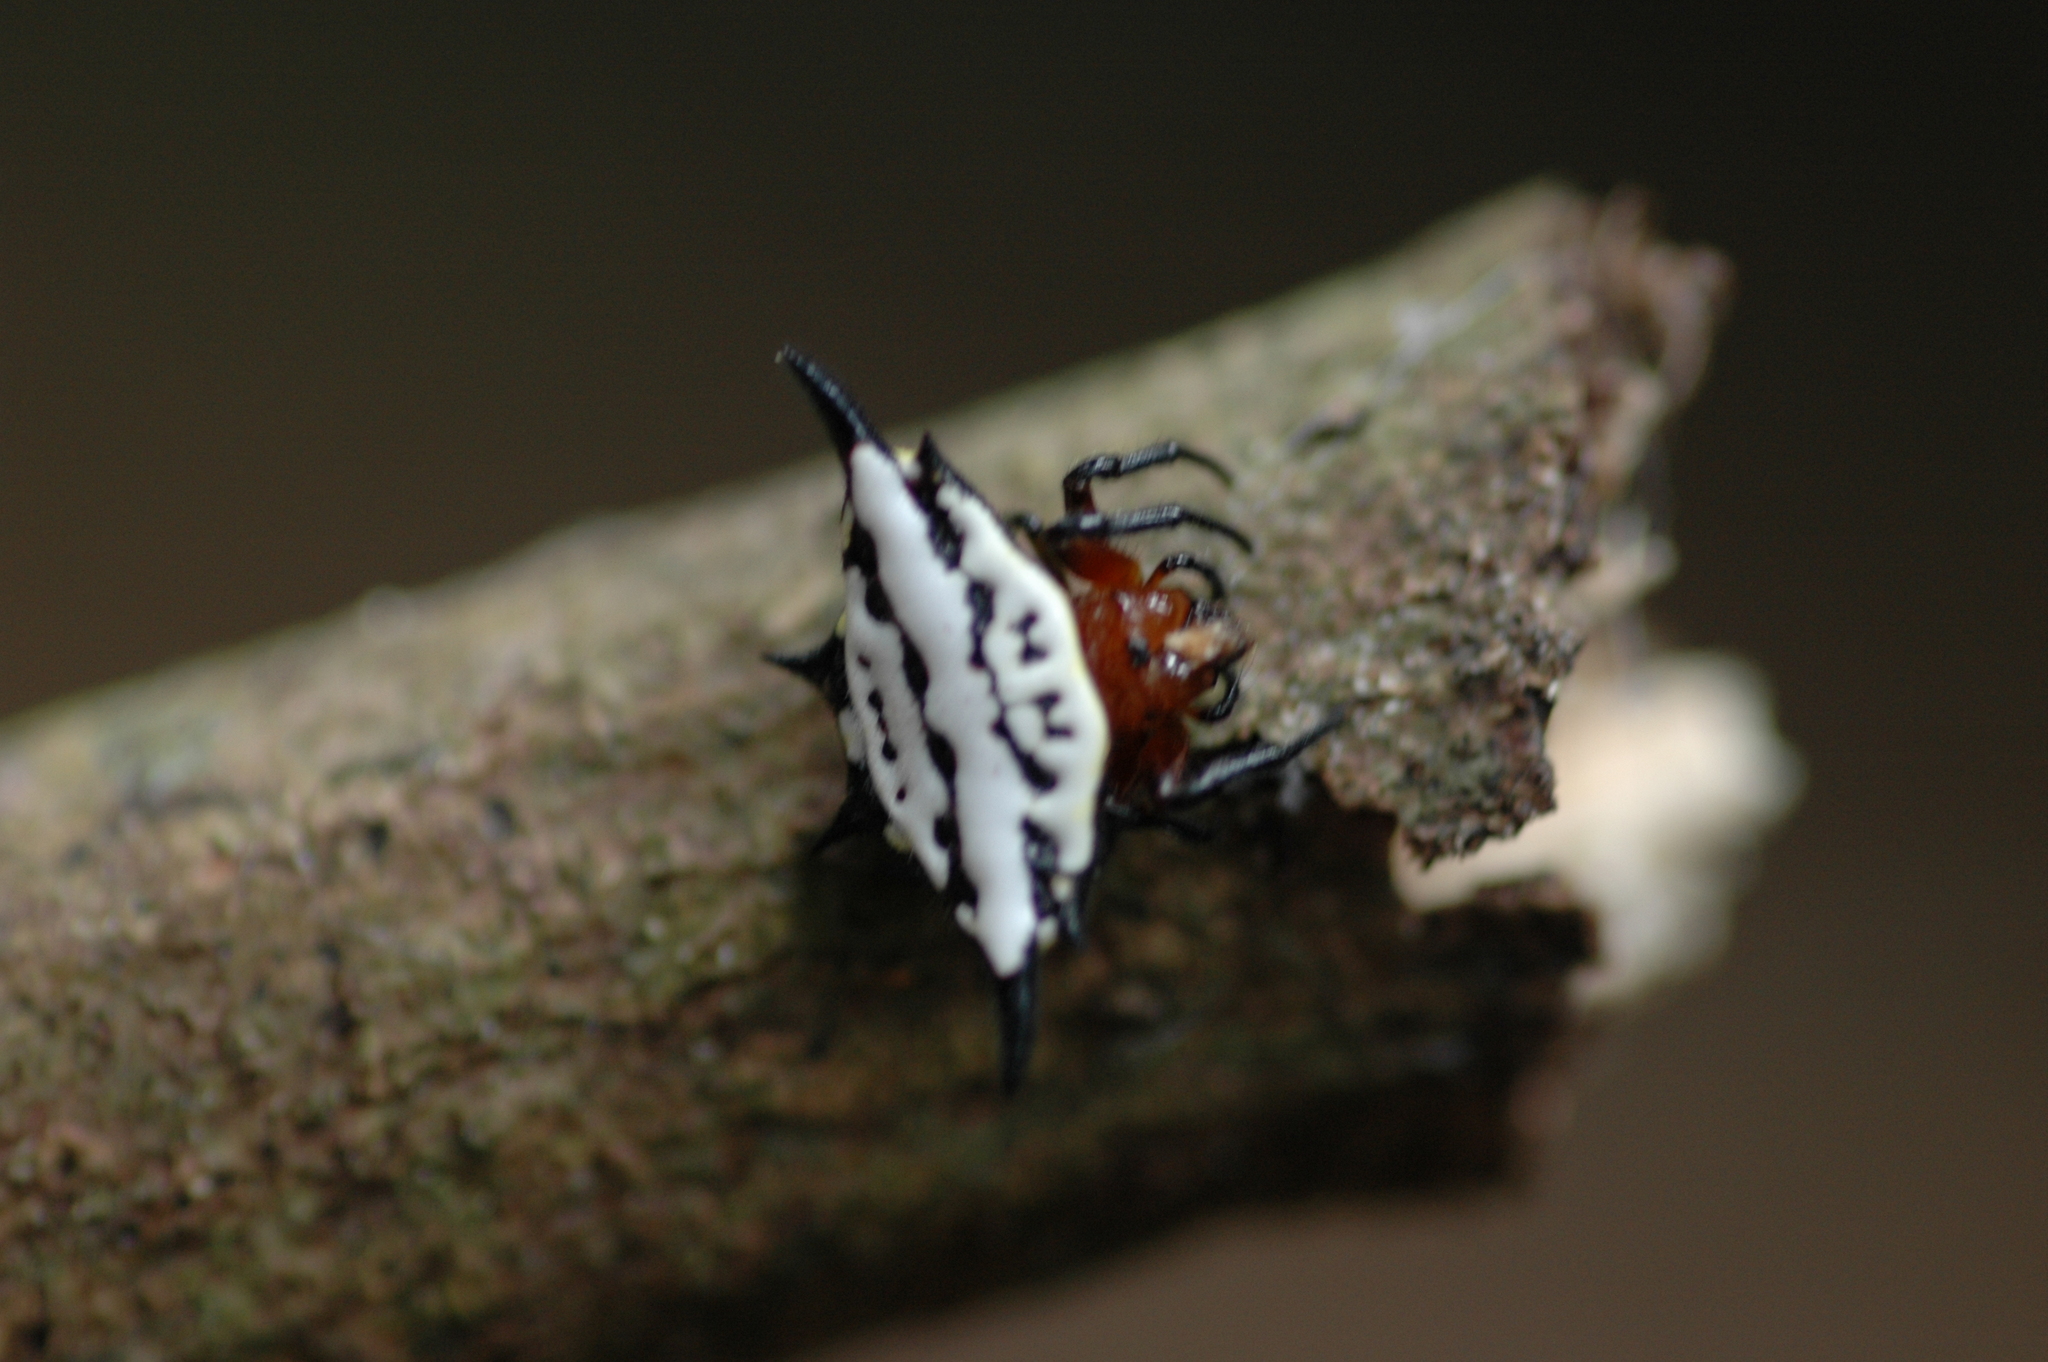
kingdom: Animalia
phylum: Arthropoda
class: Arachnida
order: Araneae
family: Araneidae
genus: Gasteracantha
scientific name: Gasteracantha rhomboidea
